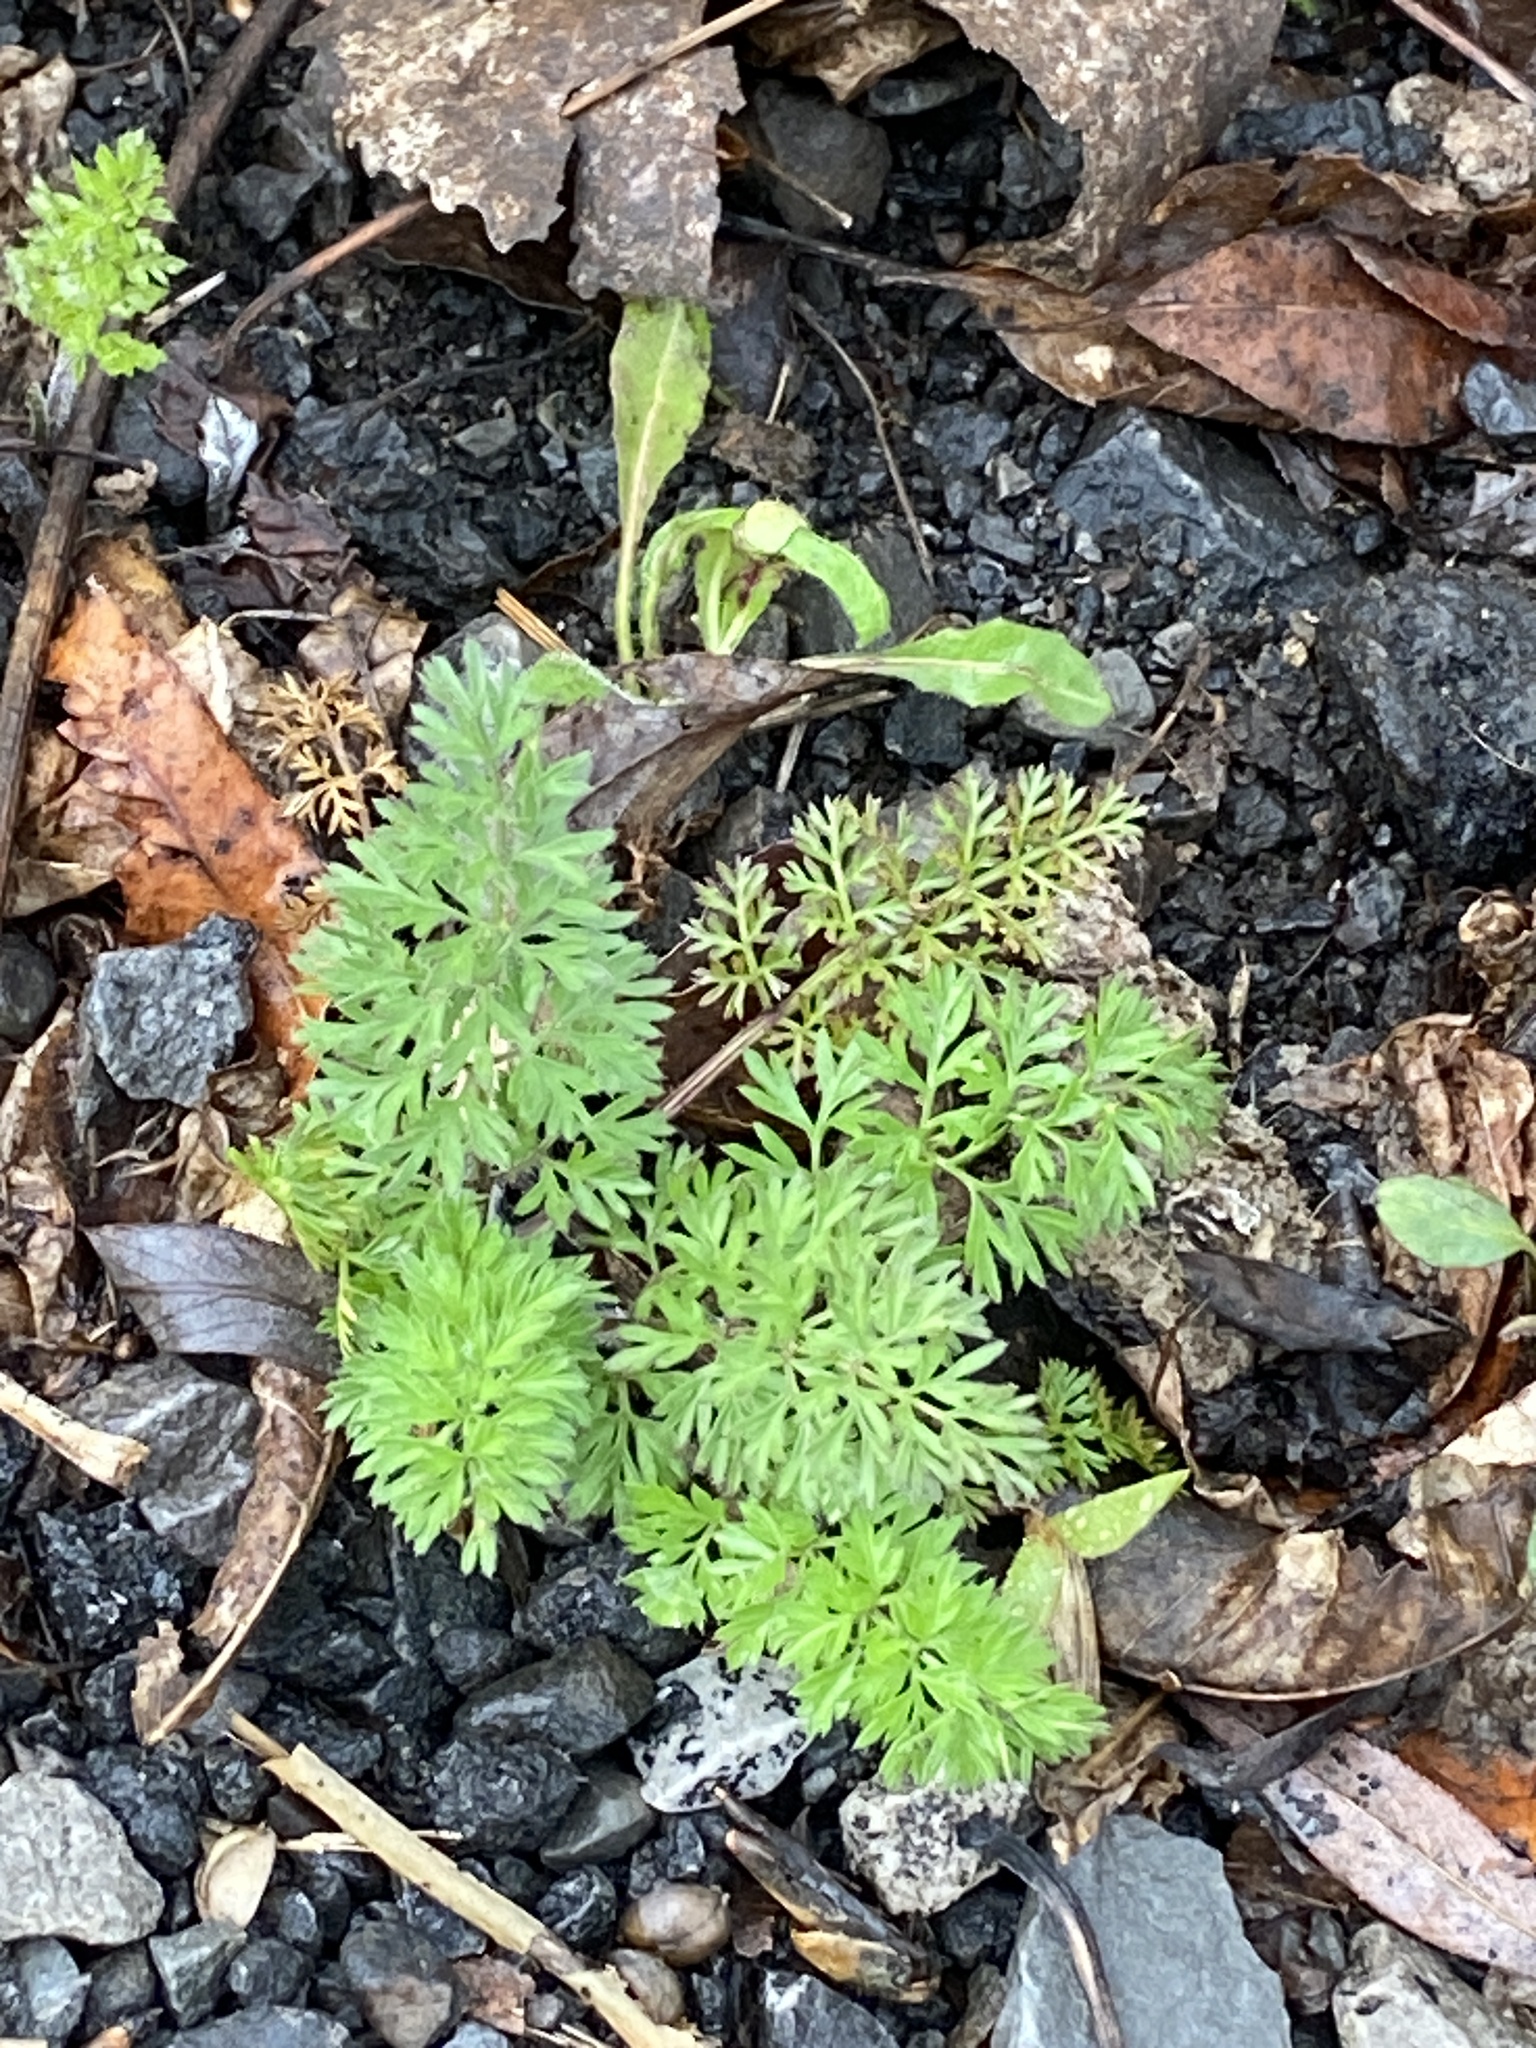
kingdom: Plantae
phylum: Tracheophyta
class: Magnoliopsida
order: Apiales
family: Apiaceae
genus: Daucus
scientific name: Daucus carota
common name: Wild carrot
